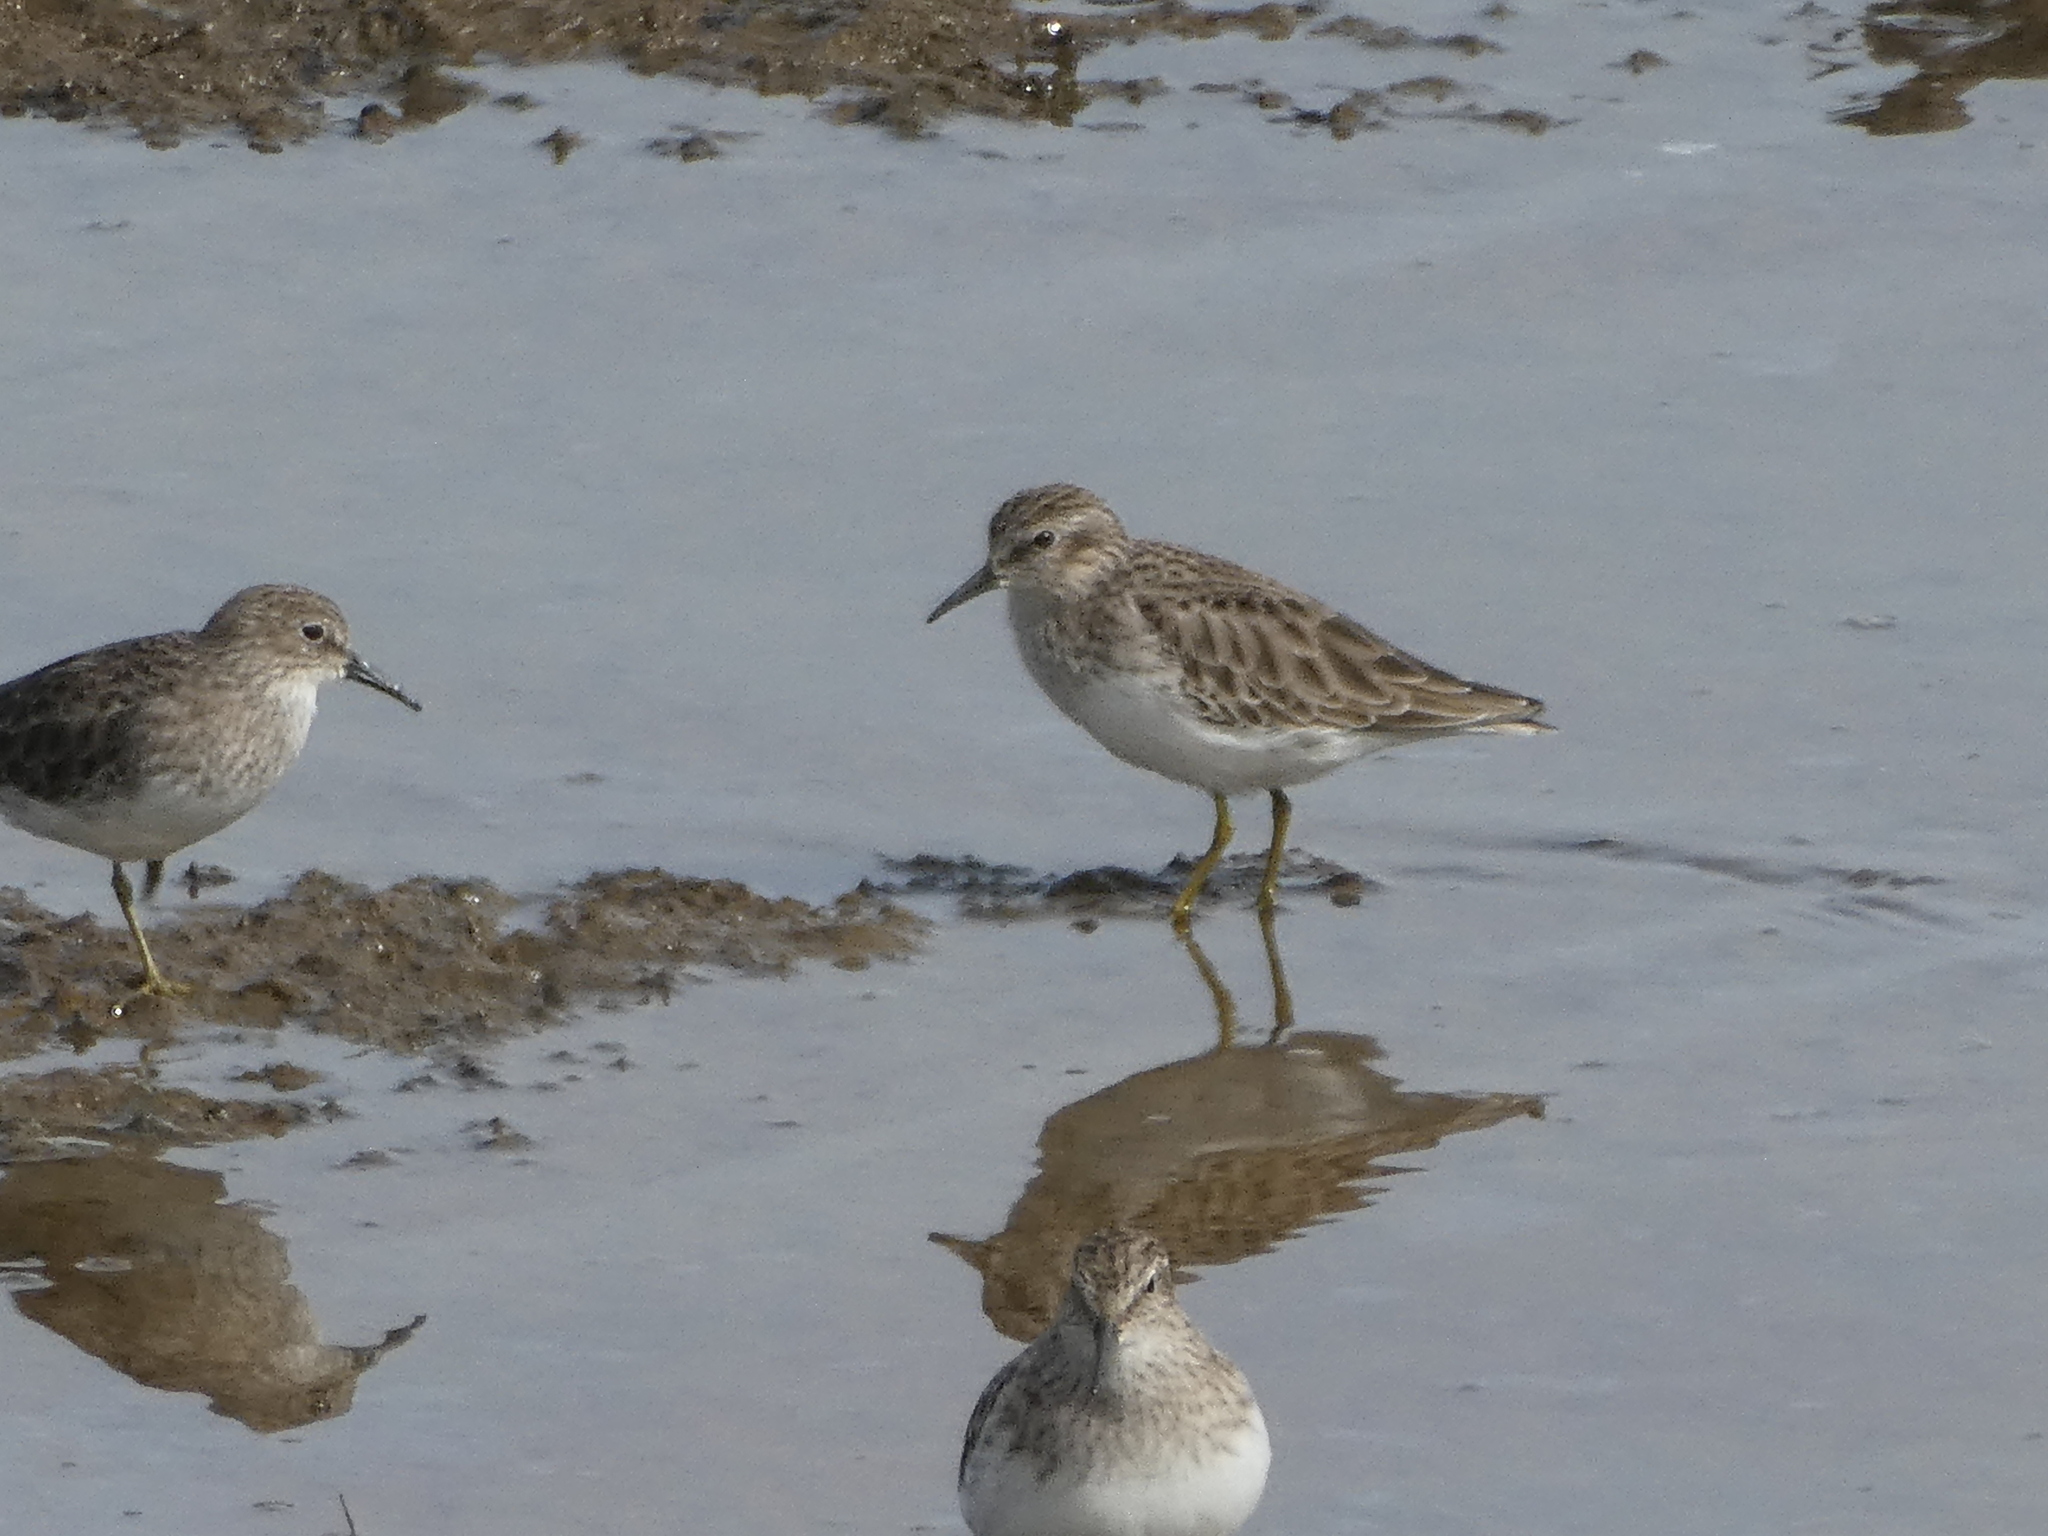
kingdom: Animalia
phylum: Chordata
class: Aves
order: Charadriiformes
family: Scolopacidae
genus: Calidris
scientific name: Calidris minutilla
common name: Least sandpiper
